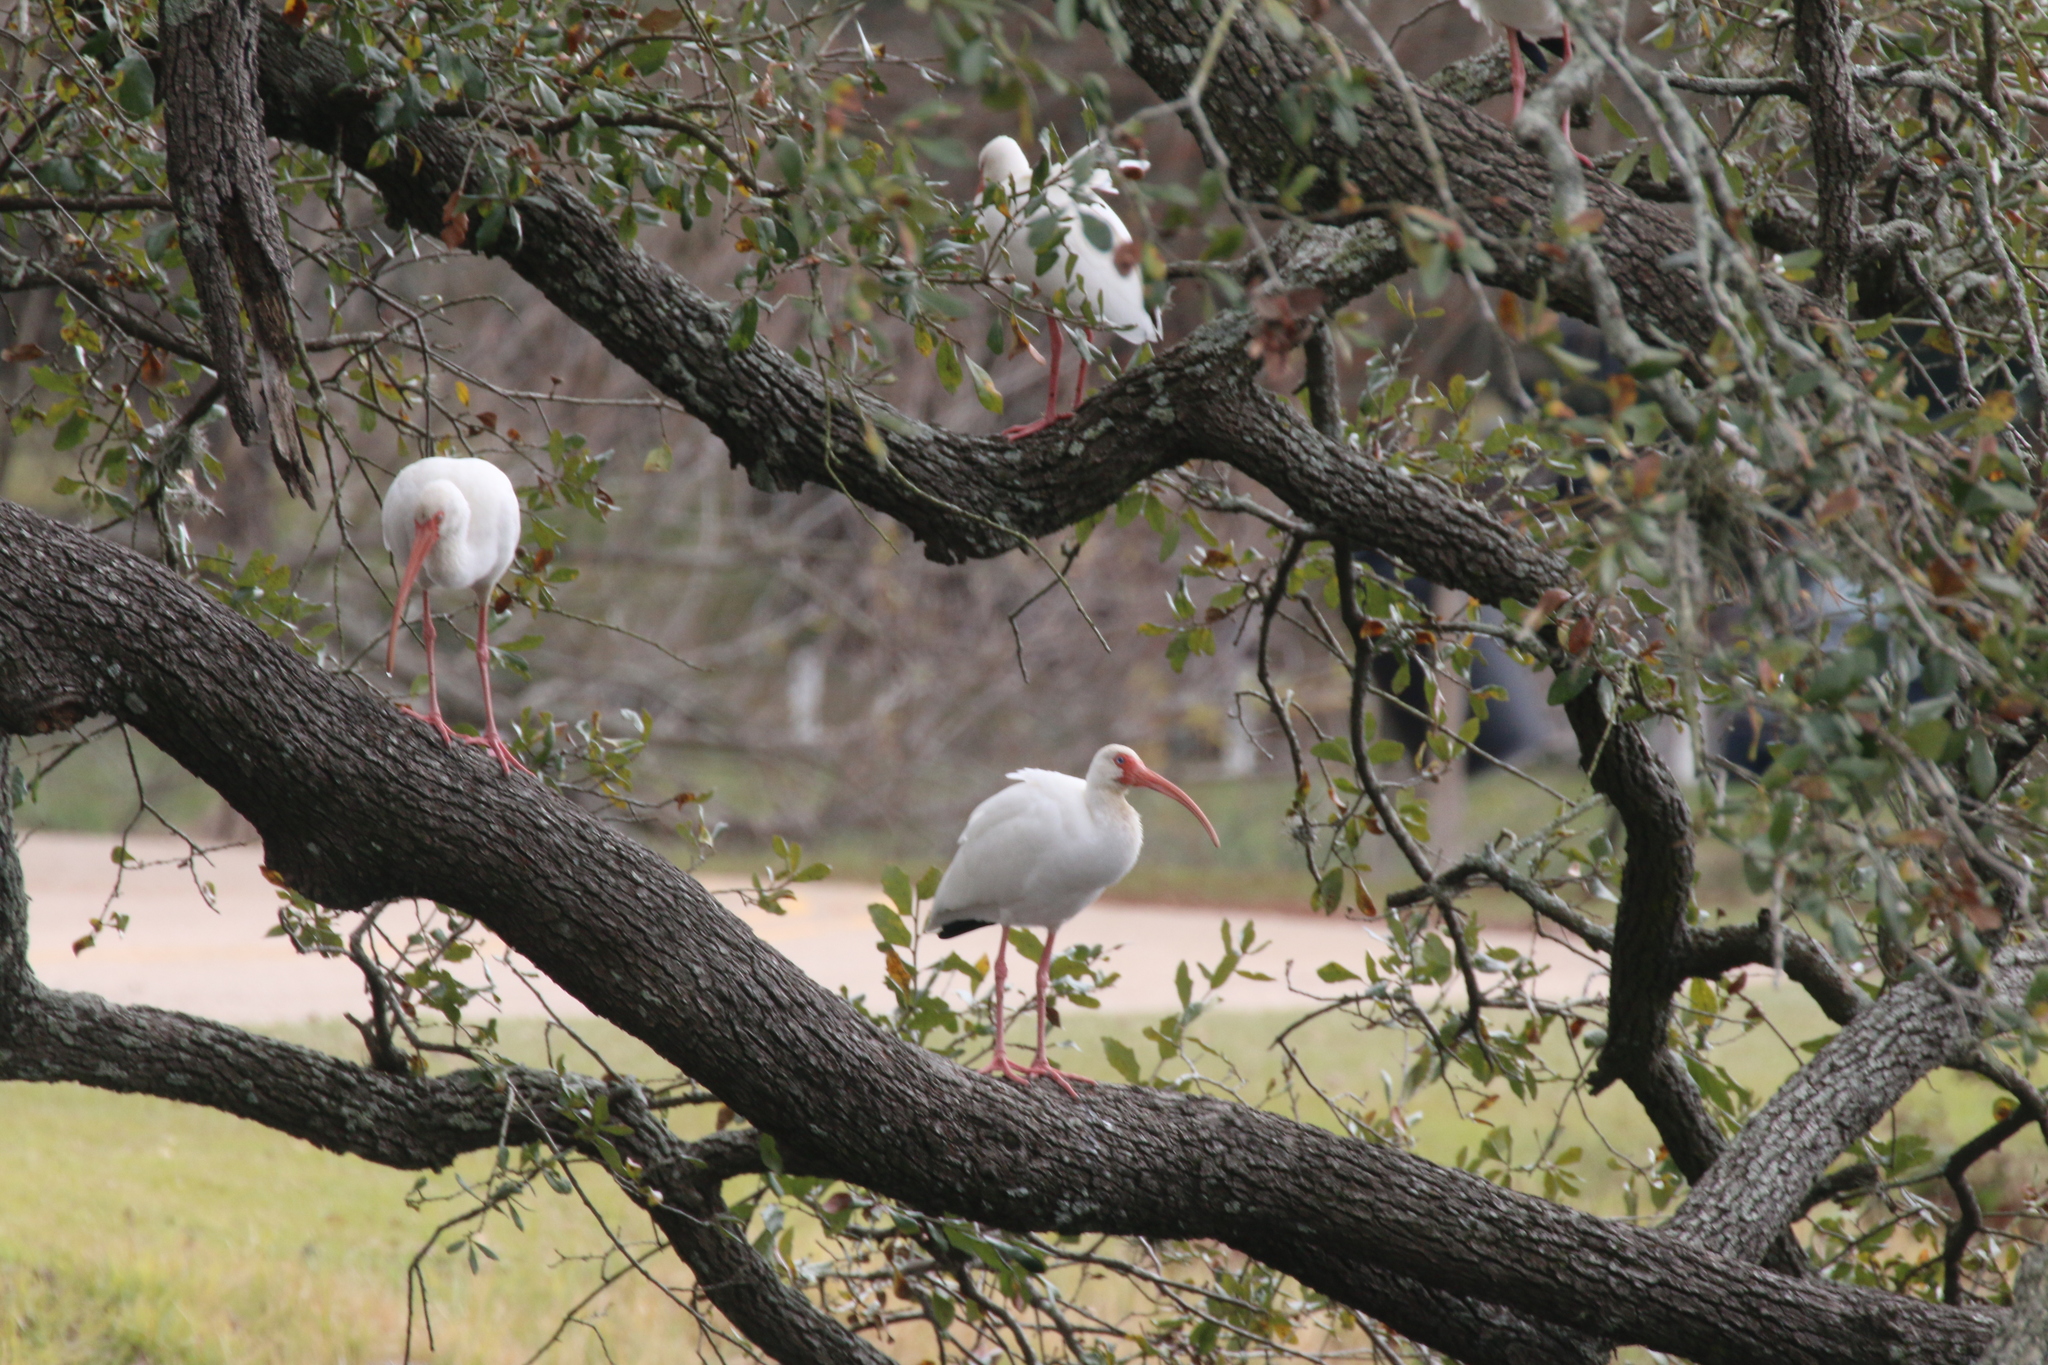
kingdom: Animalia
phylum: Chordata
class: Aves
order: Pelecaniformes
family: Threskiornithidae
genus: Eudocimus
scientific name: Eudocimus albus
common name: White ibis
